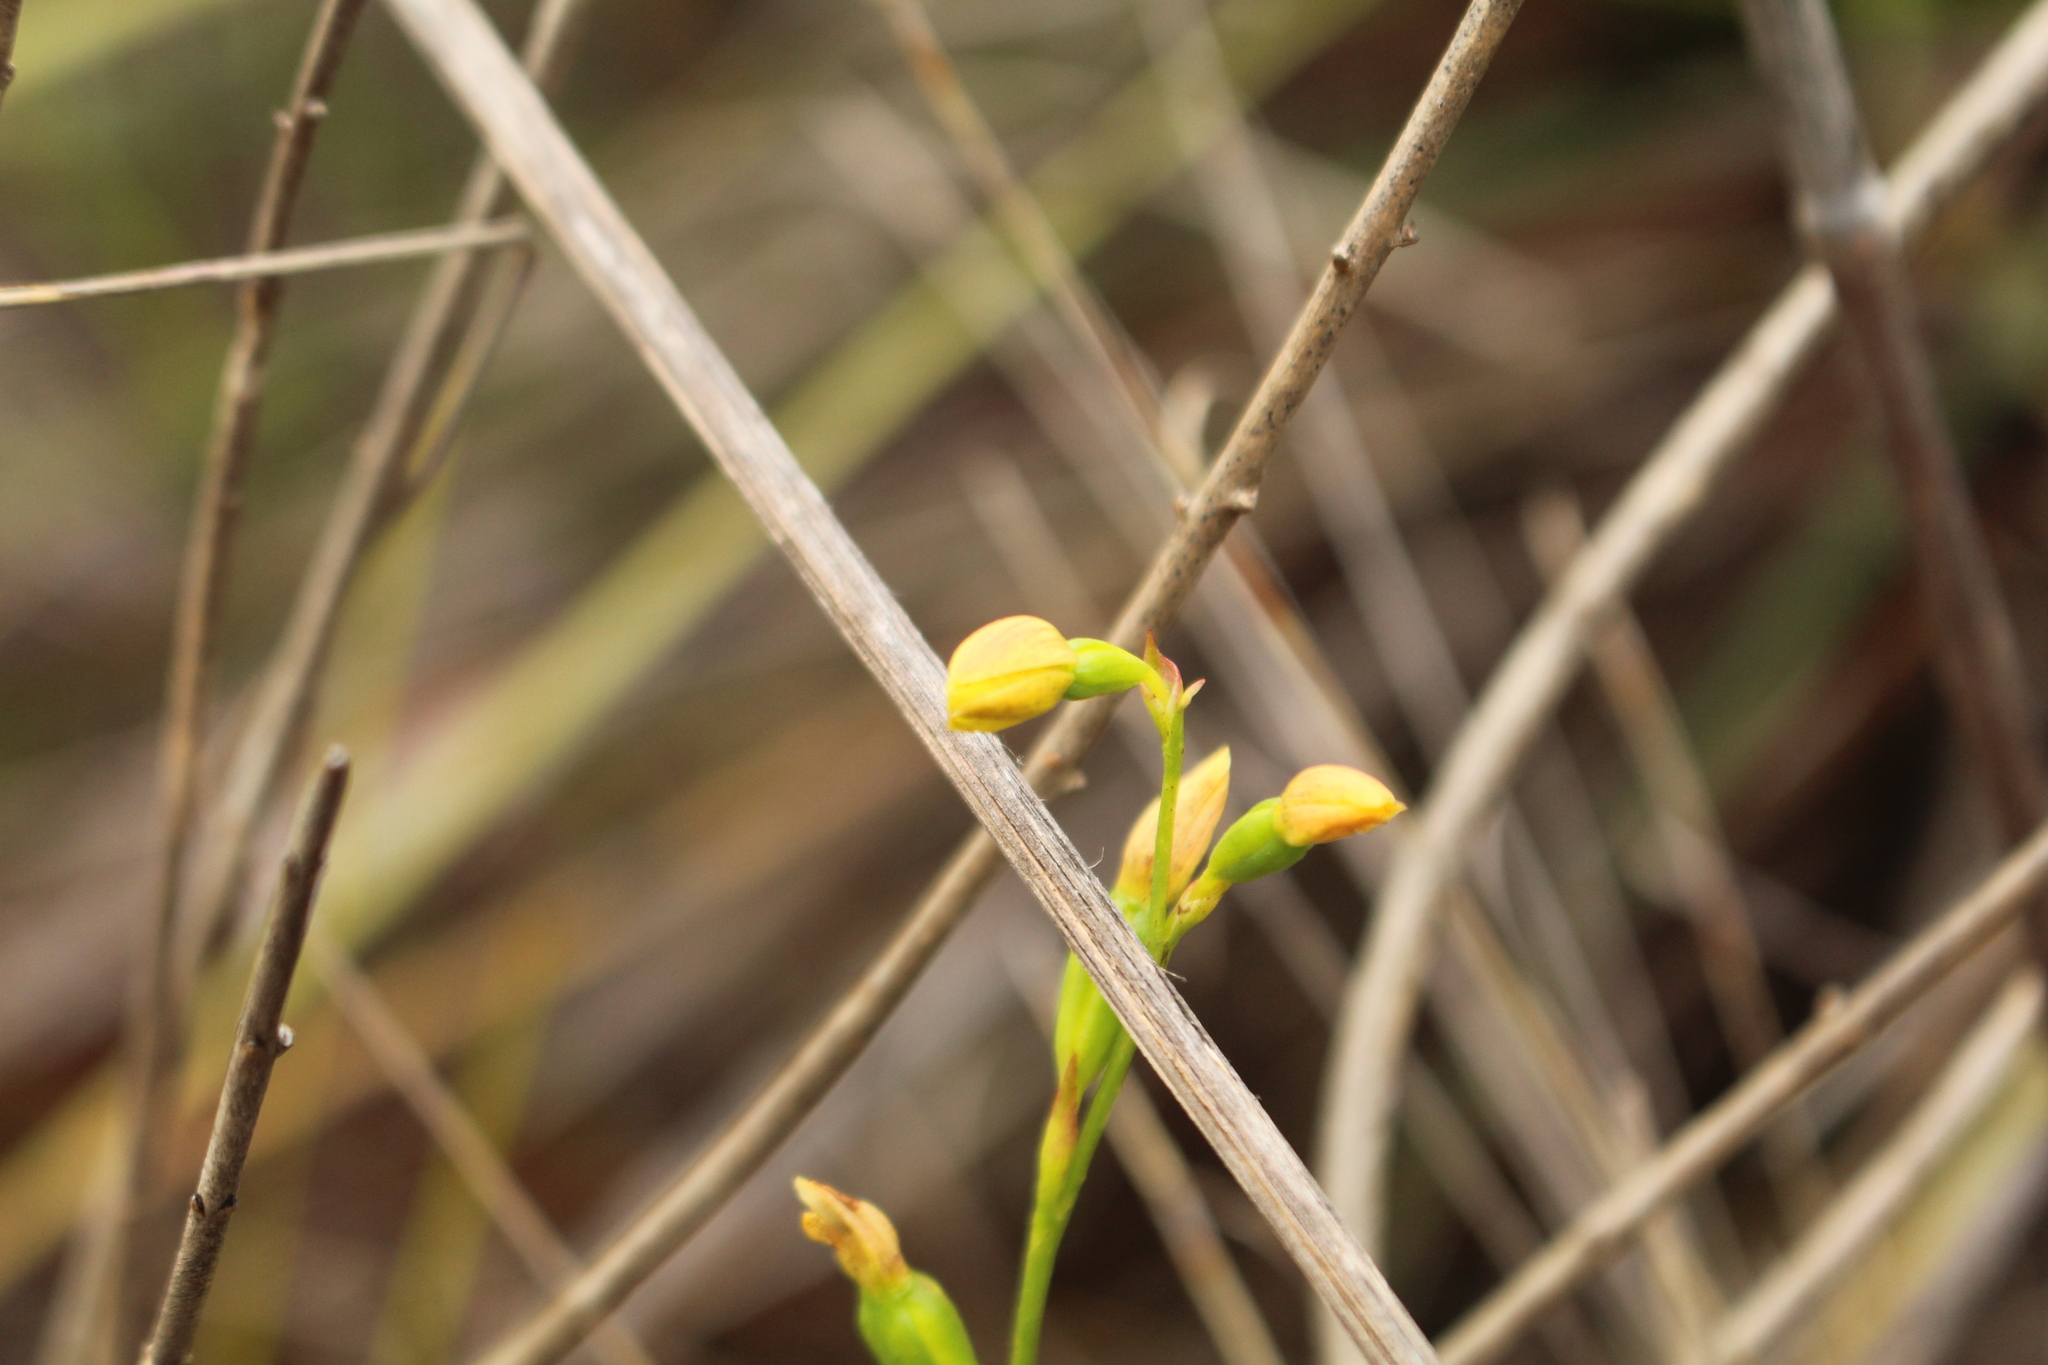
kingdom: Plantae
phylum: Tracheophyta
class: Liliopsida
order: Asparagales
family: Orchidaceae
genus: Thelymitra
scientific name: Thelymitra tigrina
